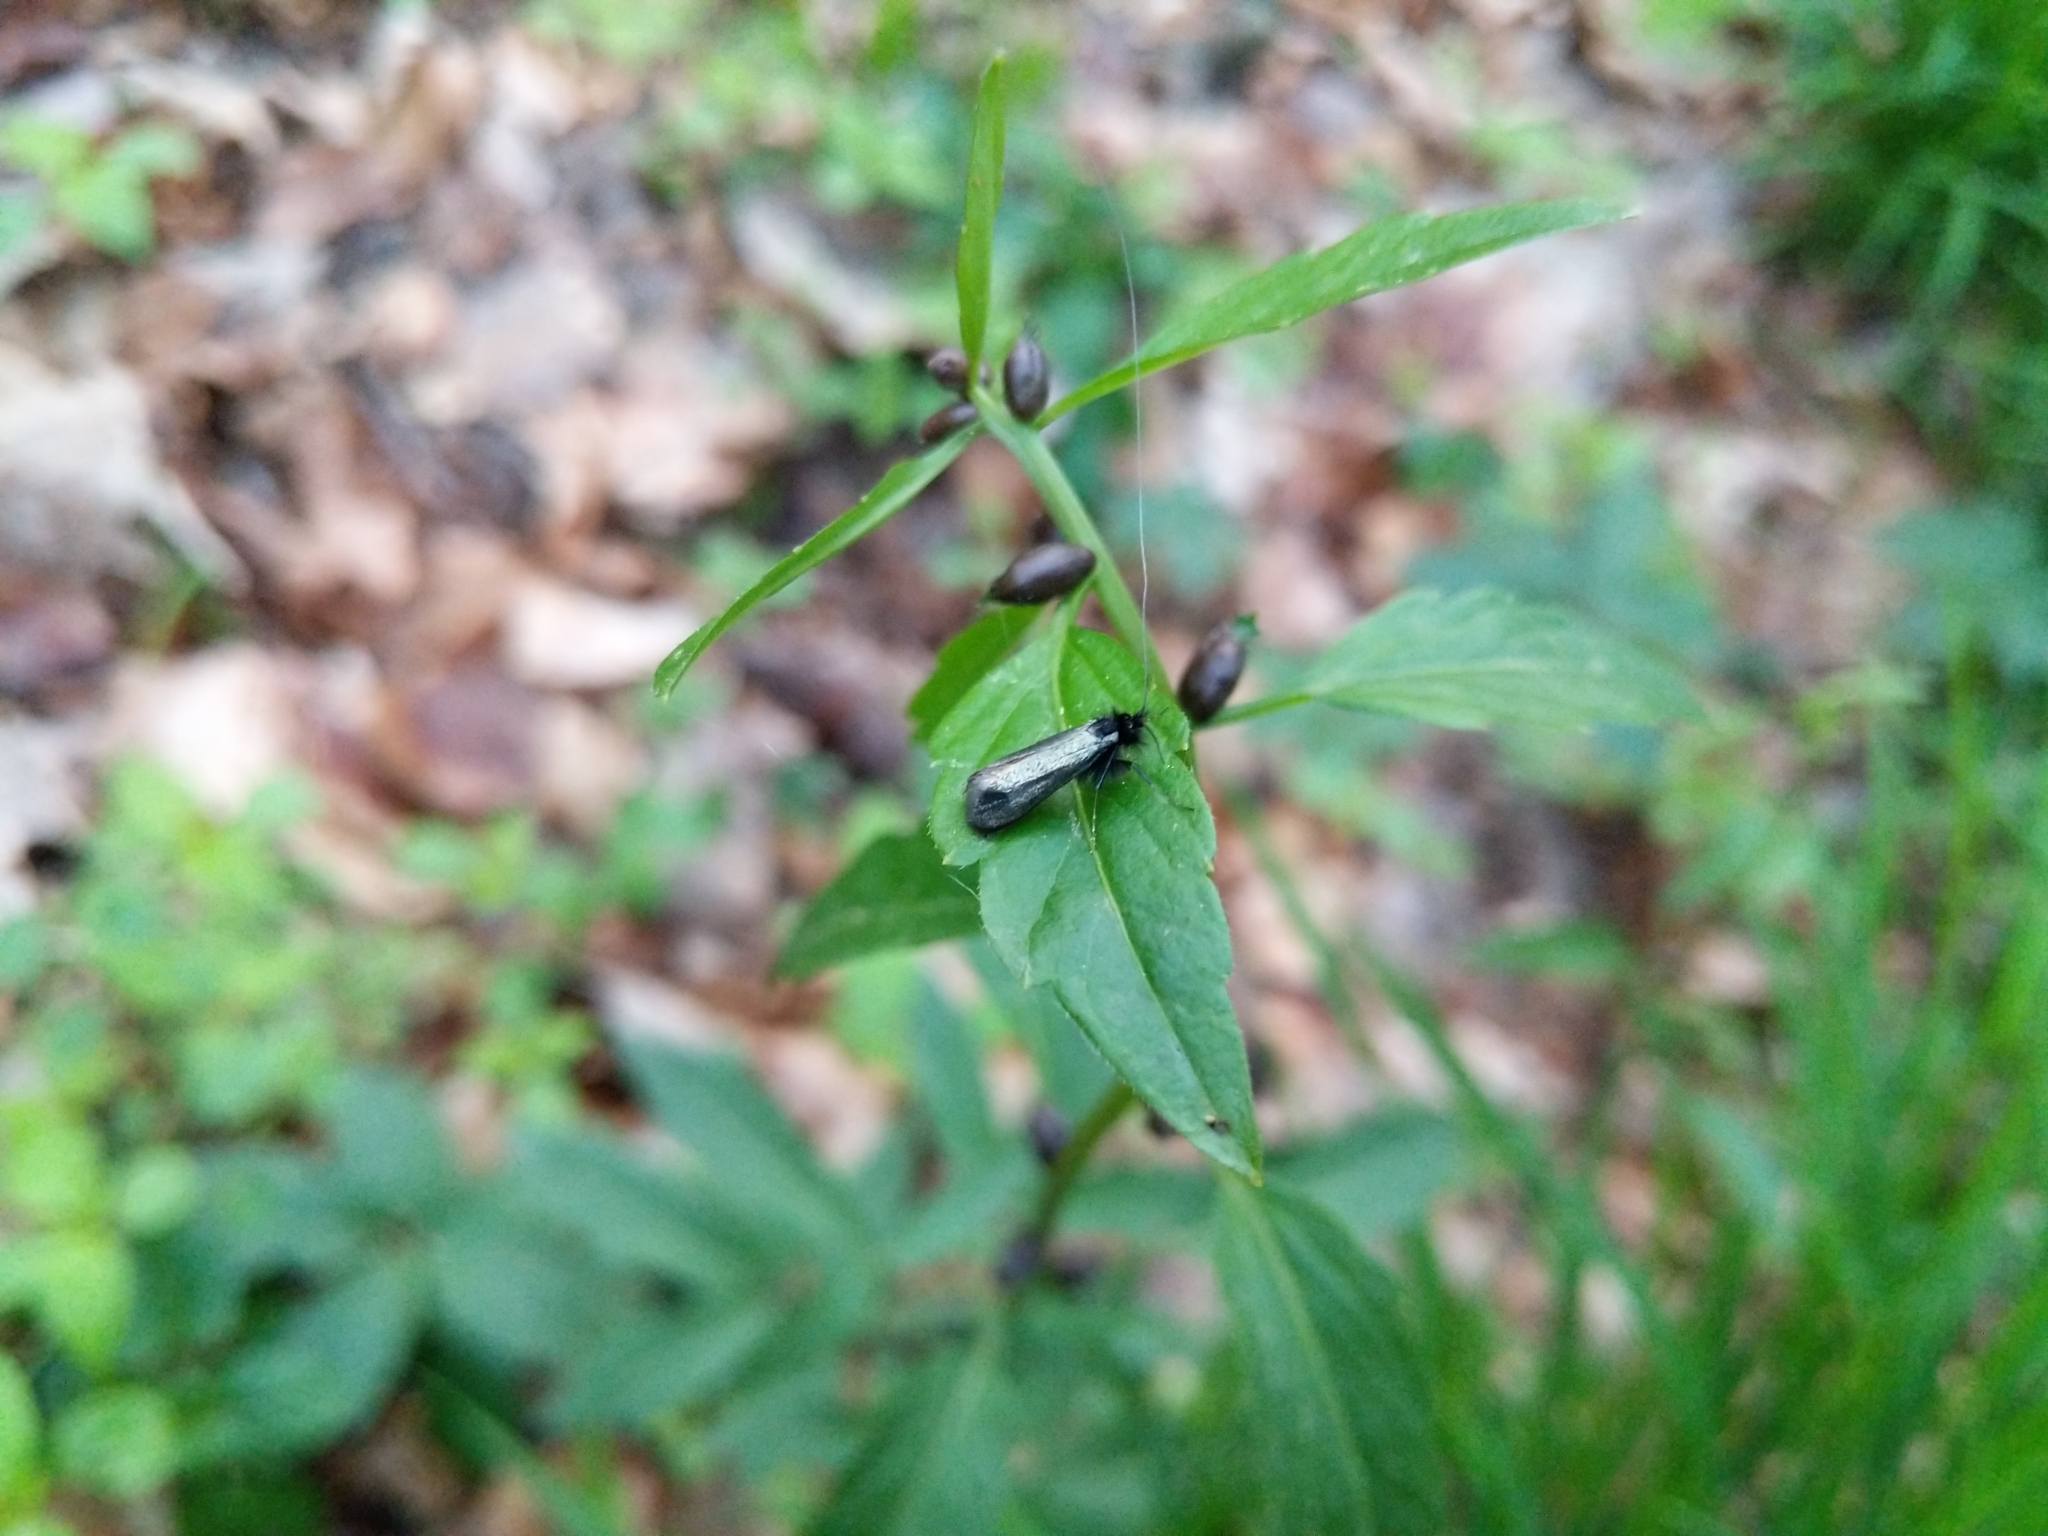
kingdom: Animalia
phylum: Arthropoda
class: Insecta
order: Lepidoptera
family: Adelidae
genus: Adela
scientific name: Adela viridella
